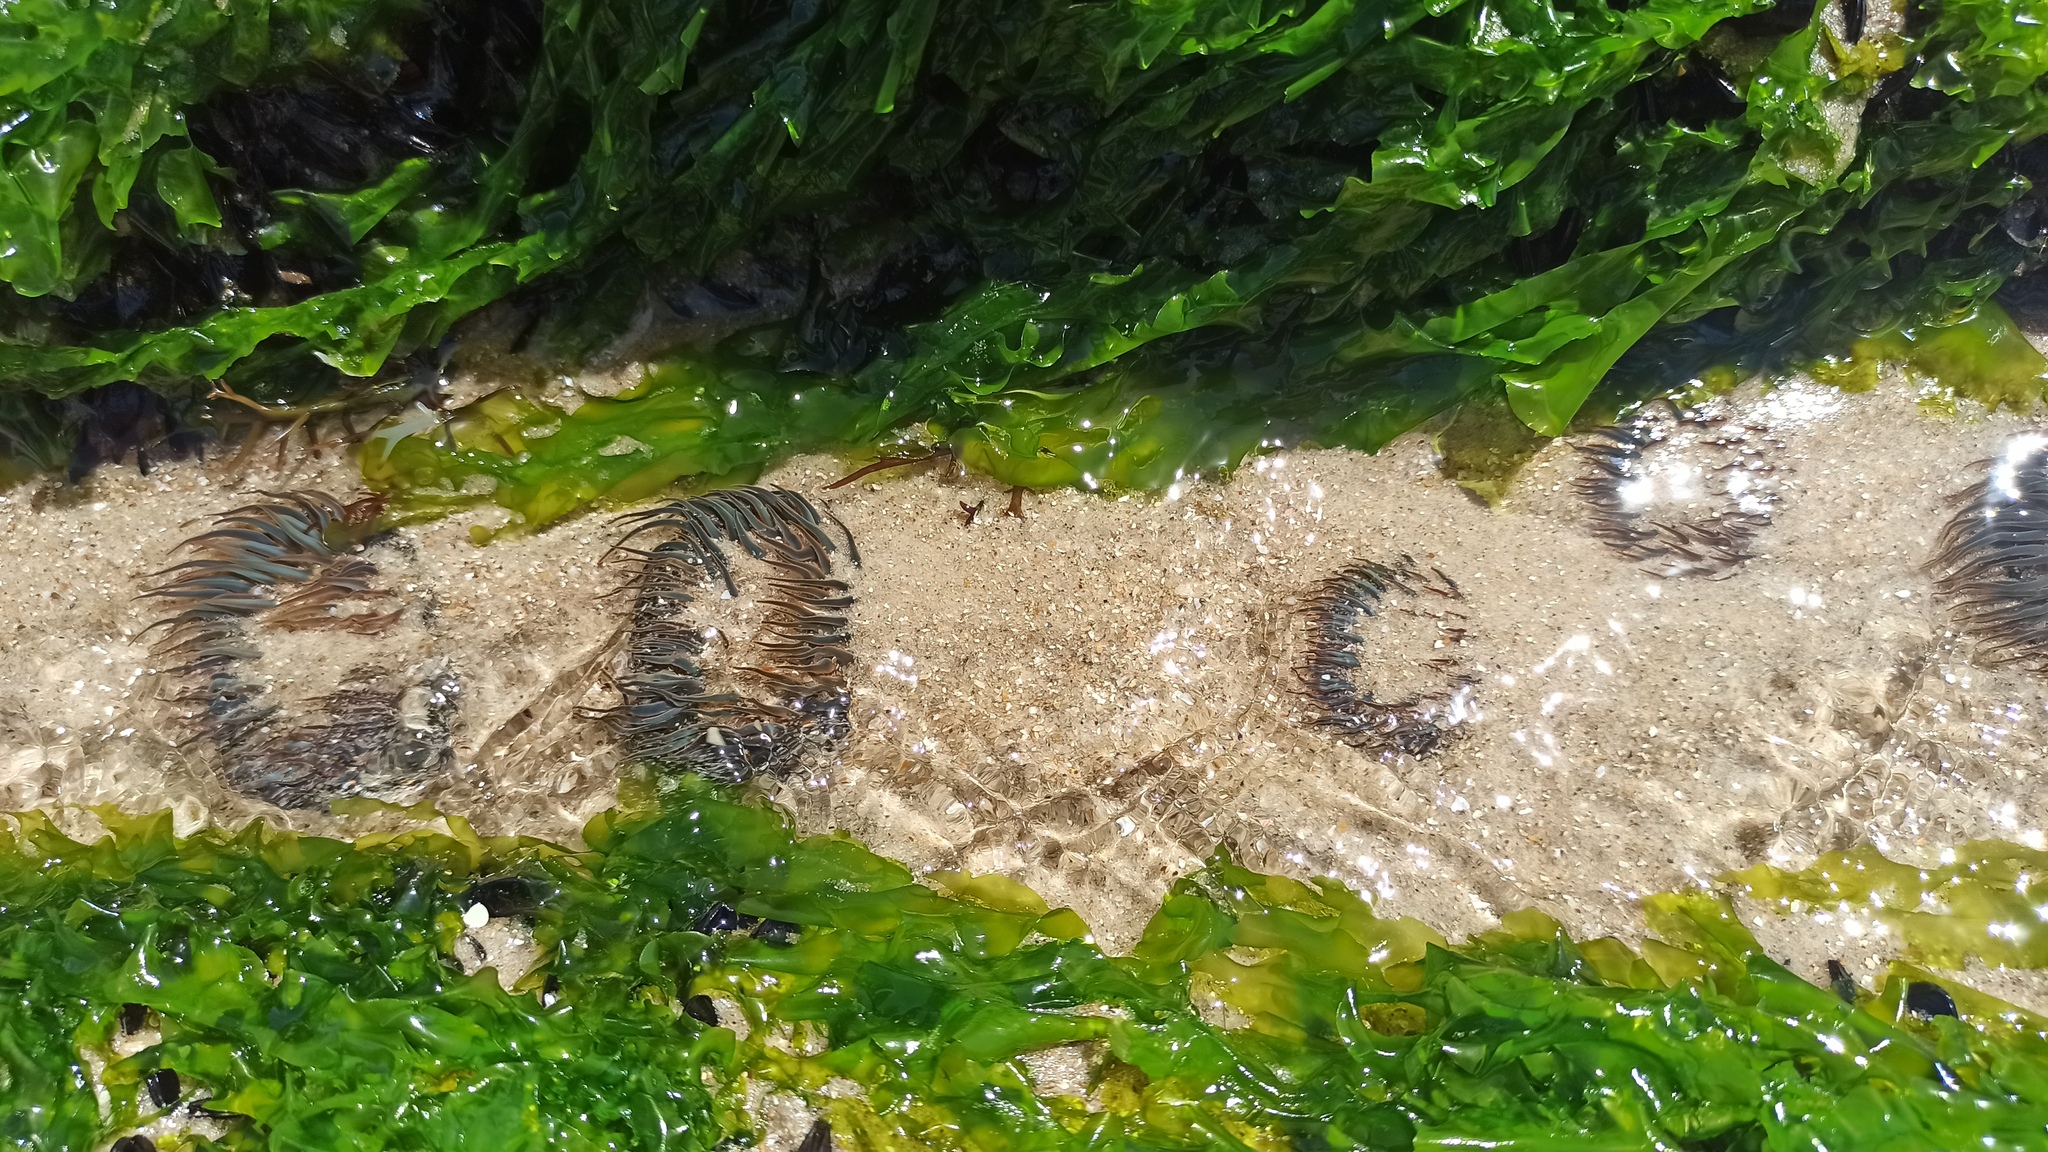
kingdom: Animalia
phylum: Cnidaria
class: Anthozoa
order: Actiniaria
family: Actiniidae
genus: Bunodosoma
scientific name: Bunodosoma cangicum
